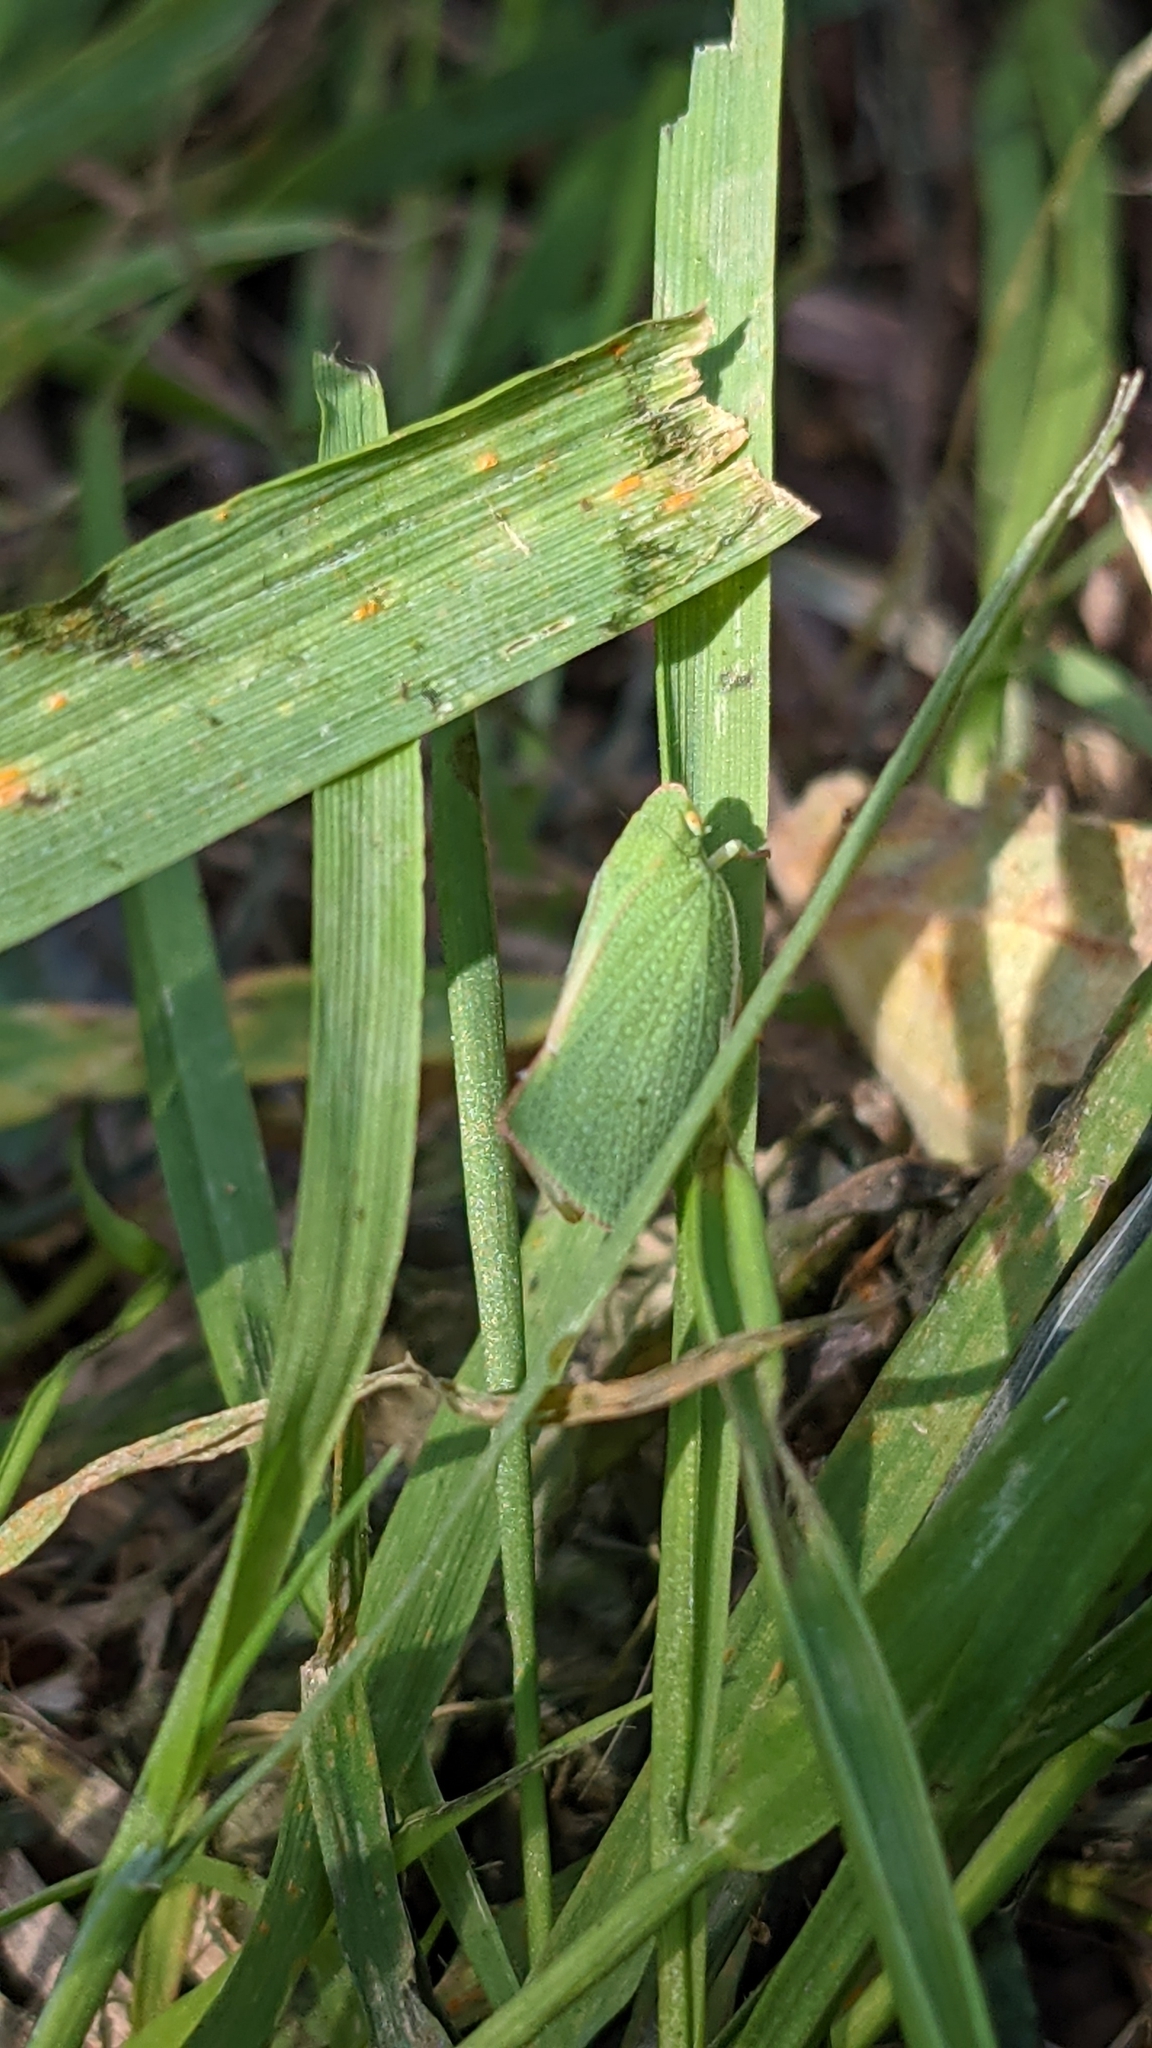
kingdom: Animalia
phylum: Arthropoda
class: Insecta
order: Hemiptera
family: Flatidae
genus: Siphanta
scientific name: Siphanta acuta
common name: Torpedo bug
